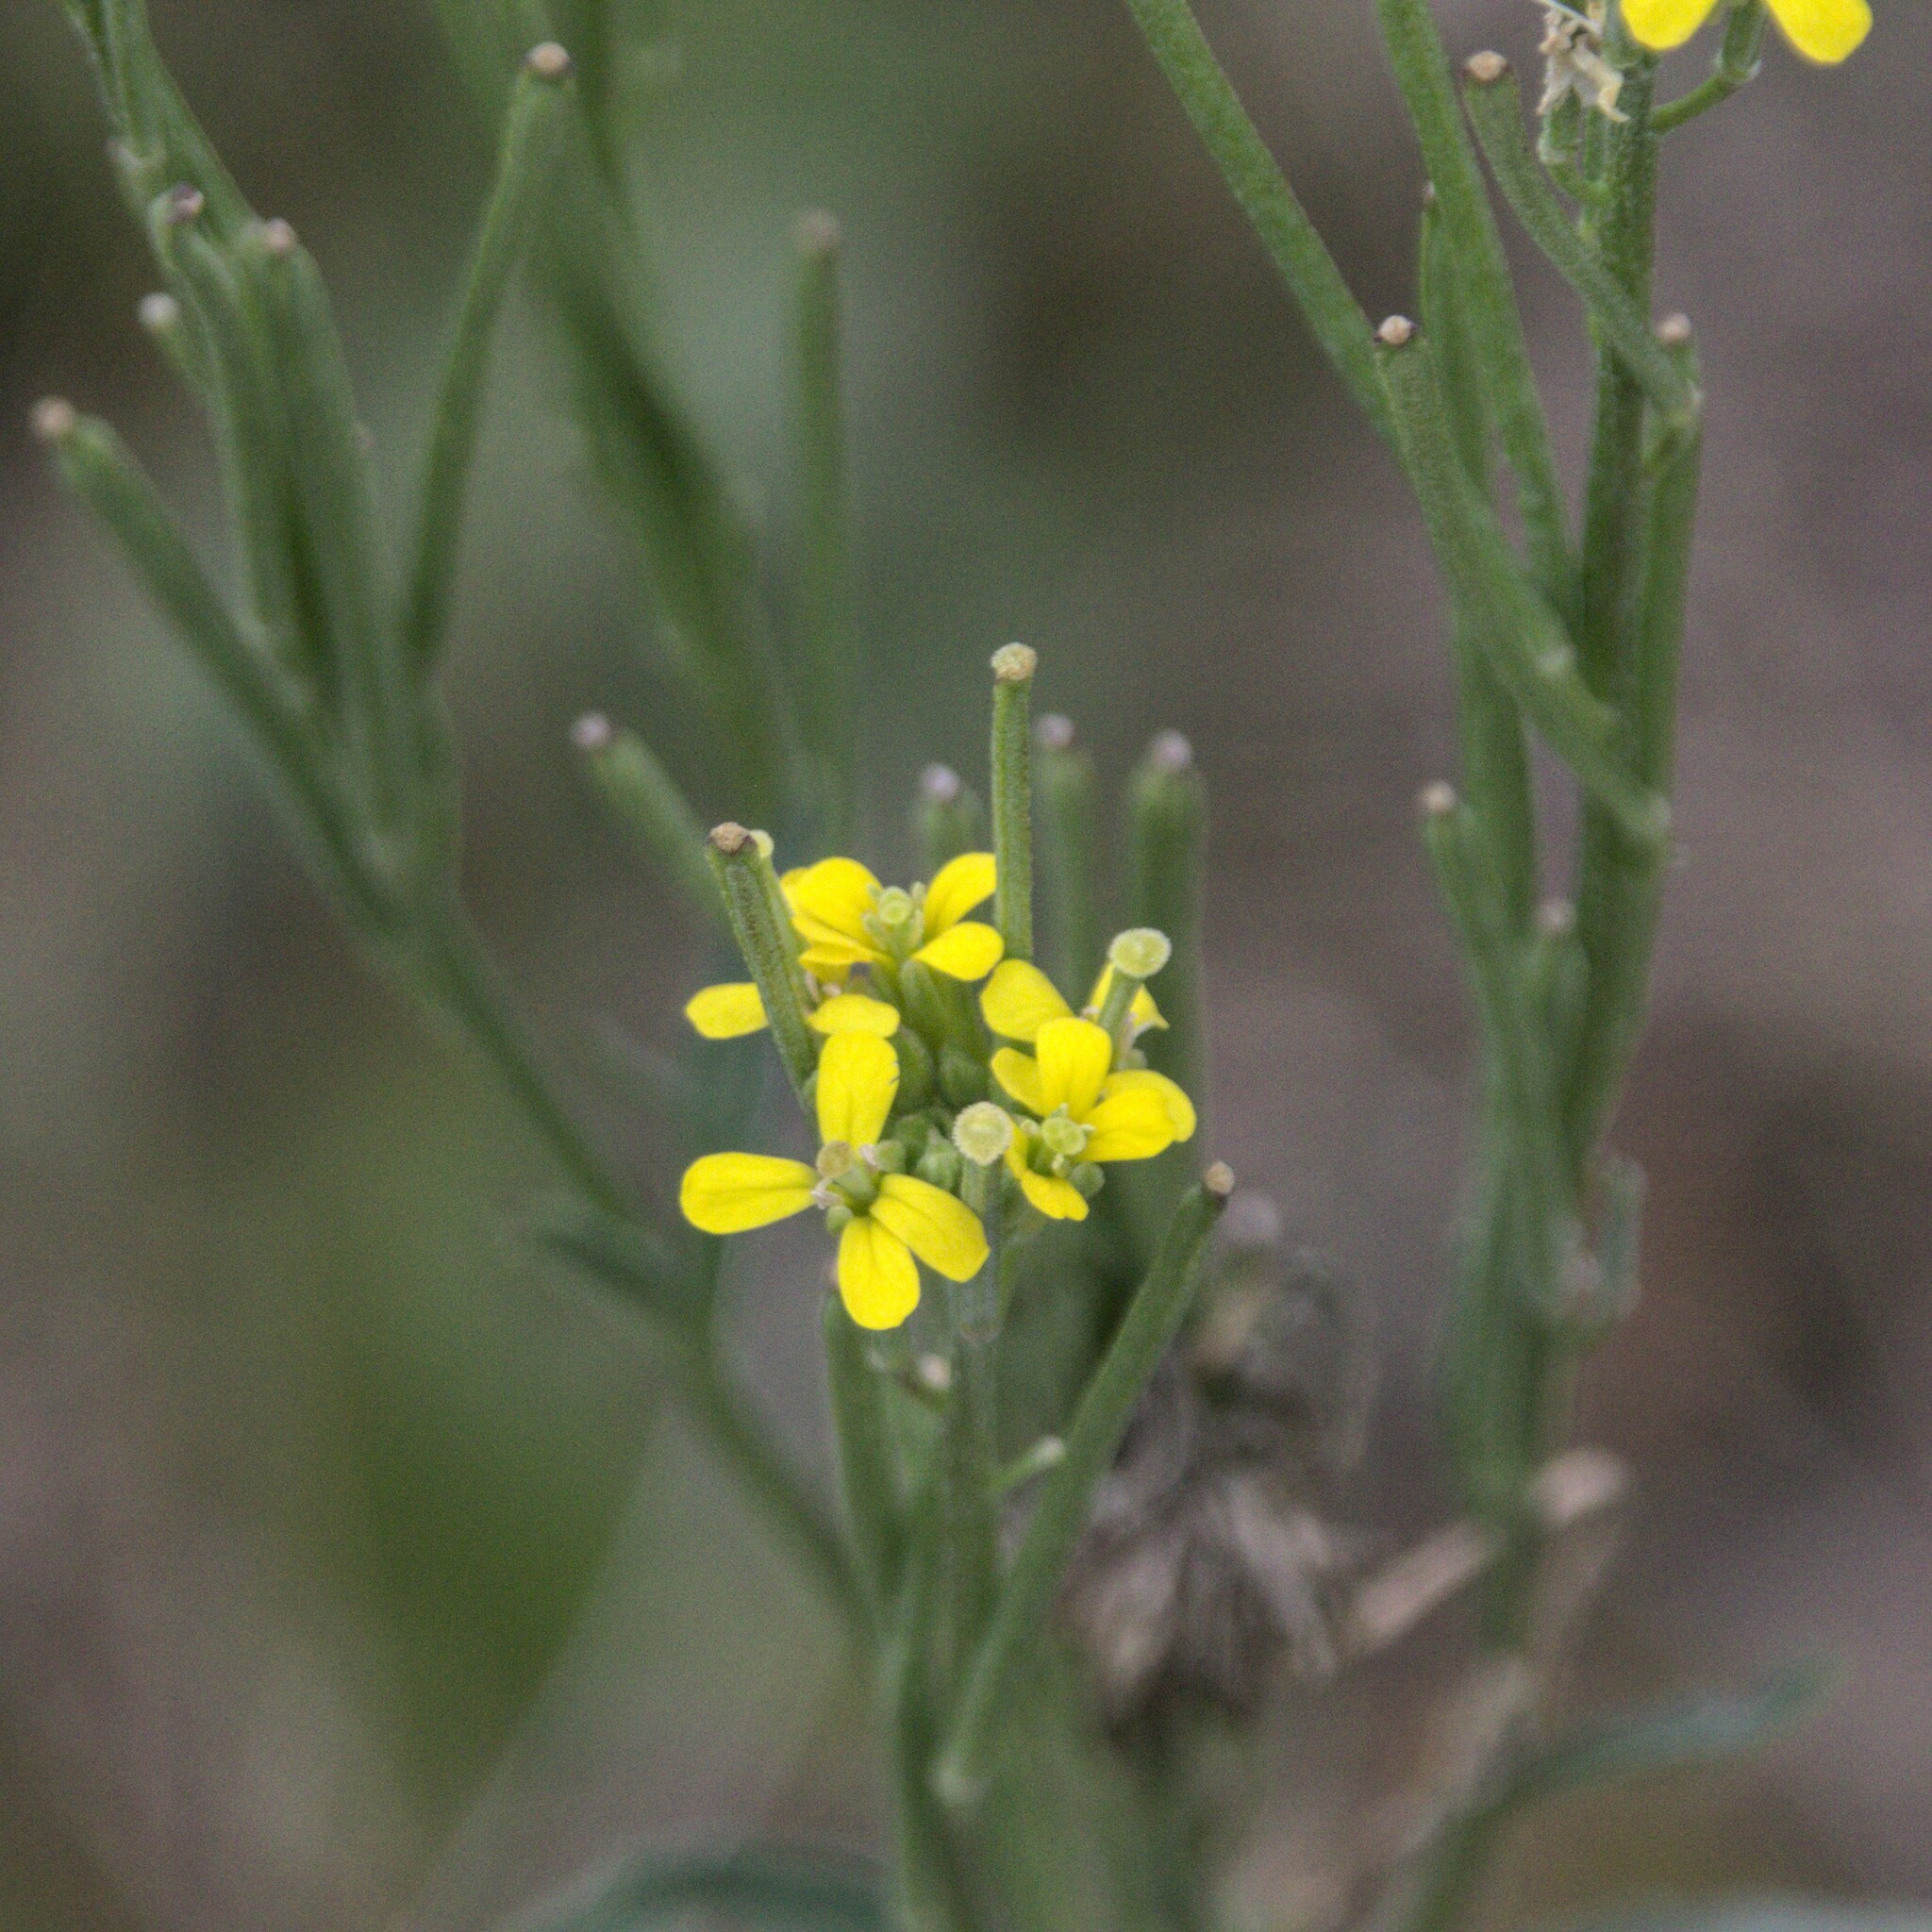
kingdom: Plantae
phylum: Tracheophyta
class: Magnoliopsida
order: Brassicales
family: Brassicaceae
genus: Erysimum
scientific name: Erysimum hieraciifolium
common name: European wallflower
